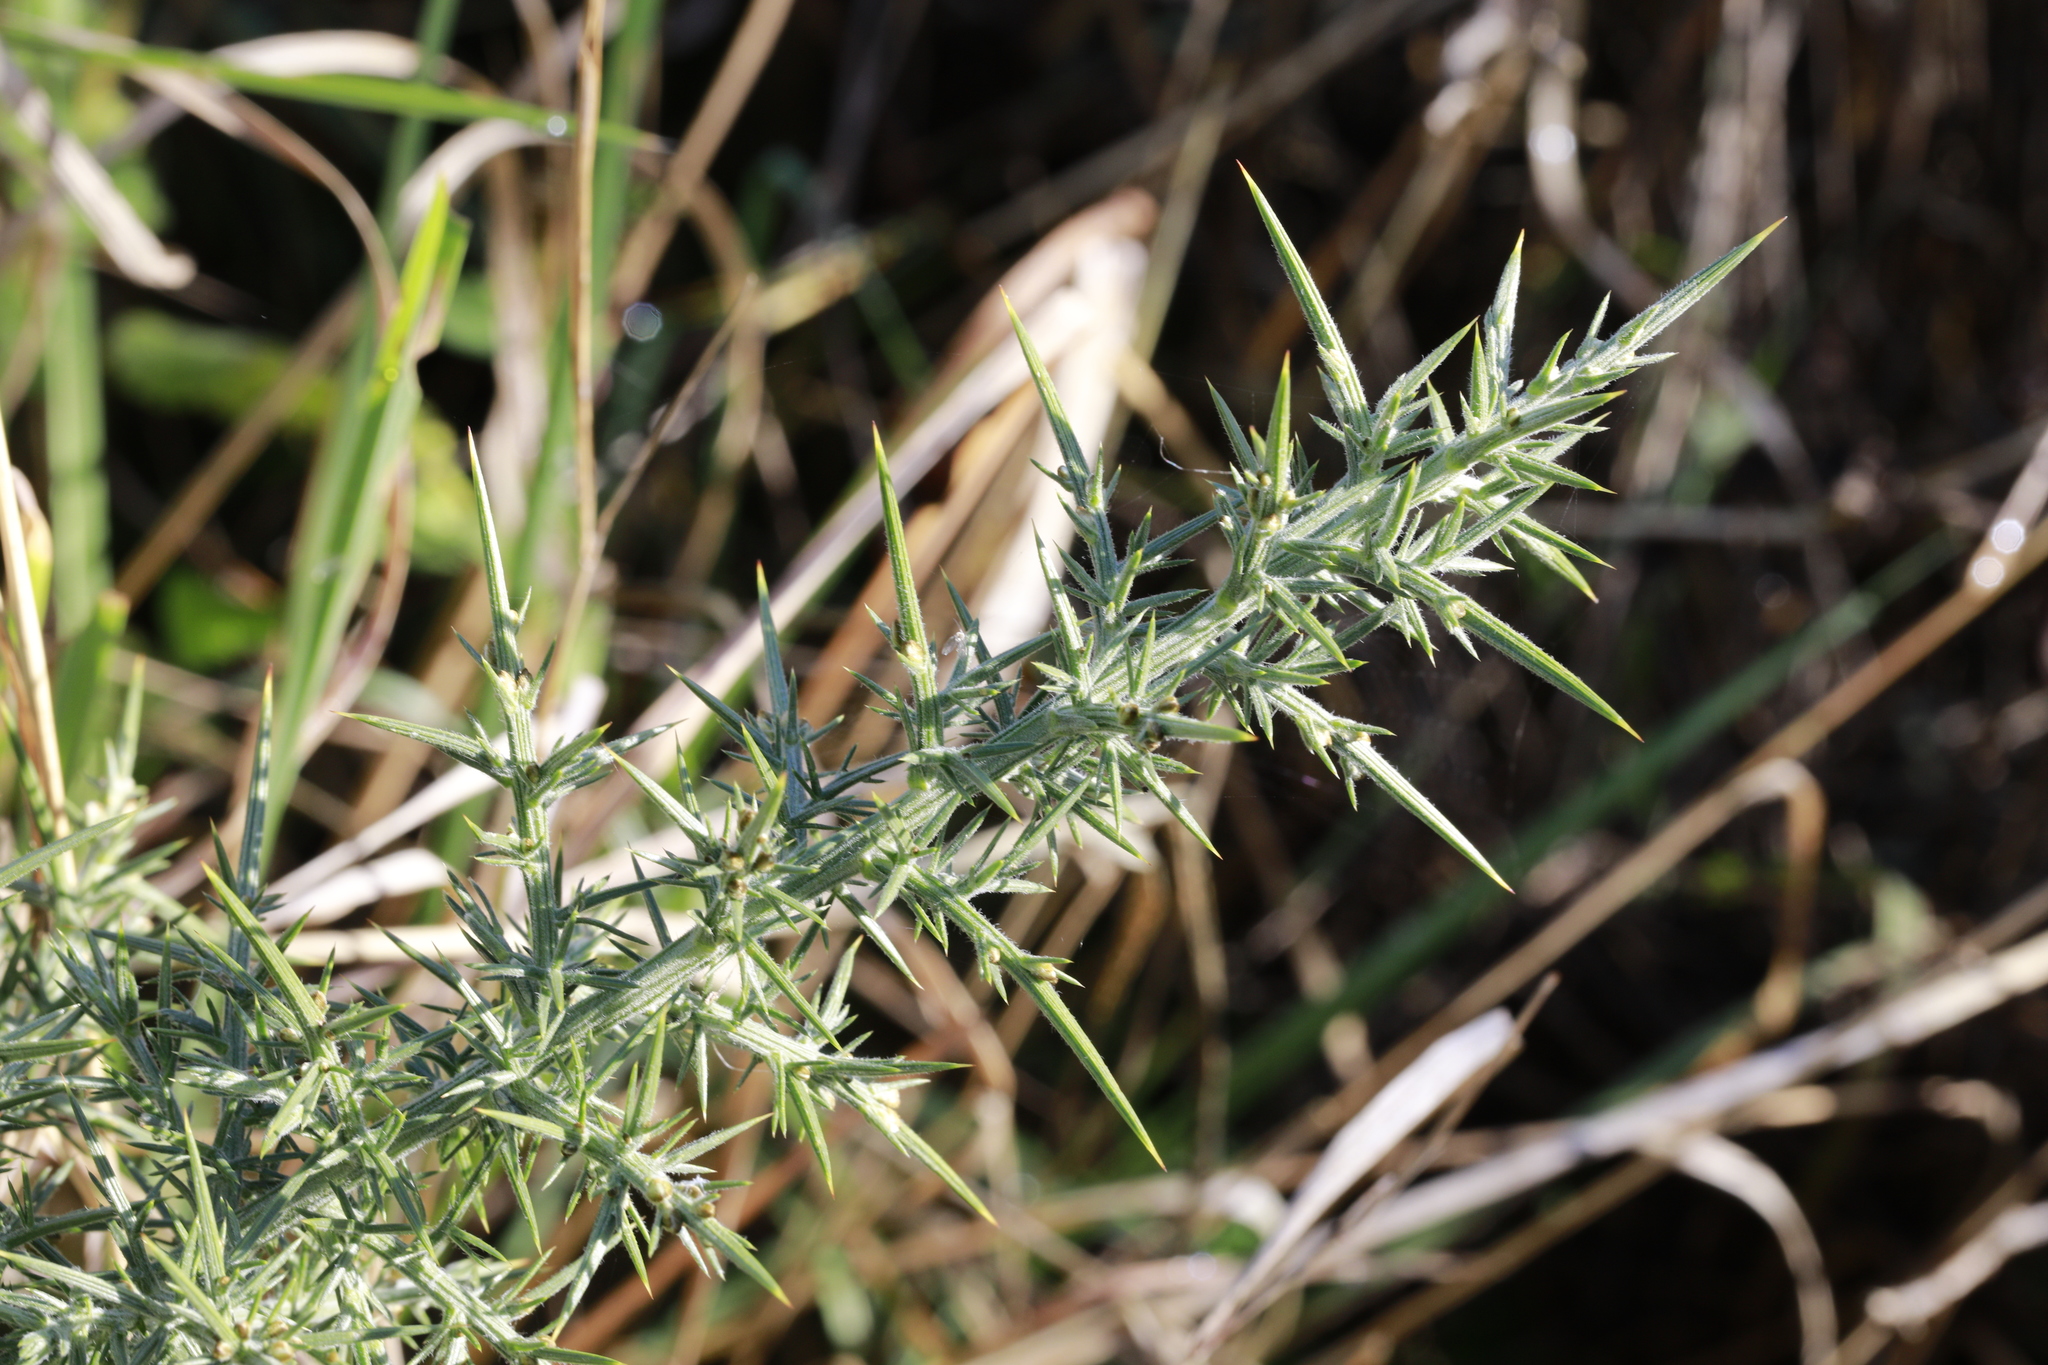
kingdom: Plantae
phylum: Tracheophyta
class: Magnoliopsida
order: Fabales
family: Fabaceae
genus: Ulex
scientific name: Ulex europaeus
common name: Common gorse
